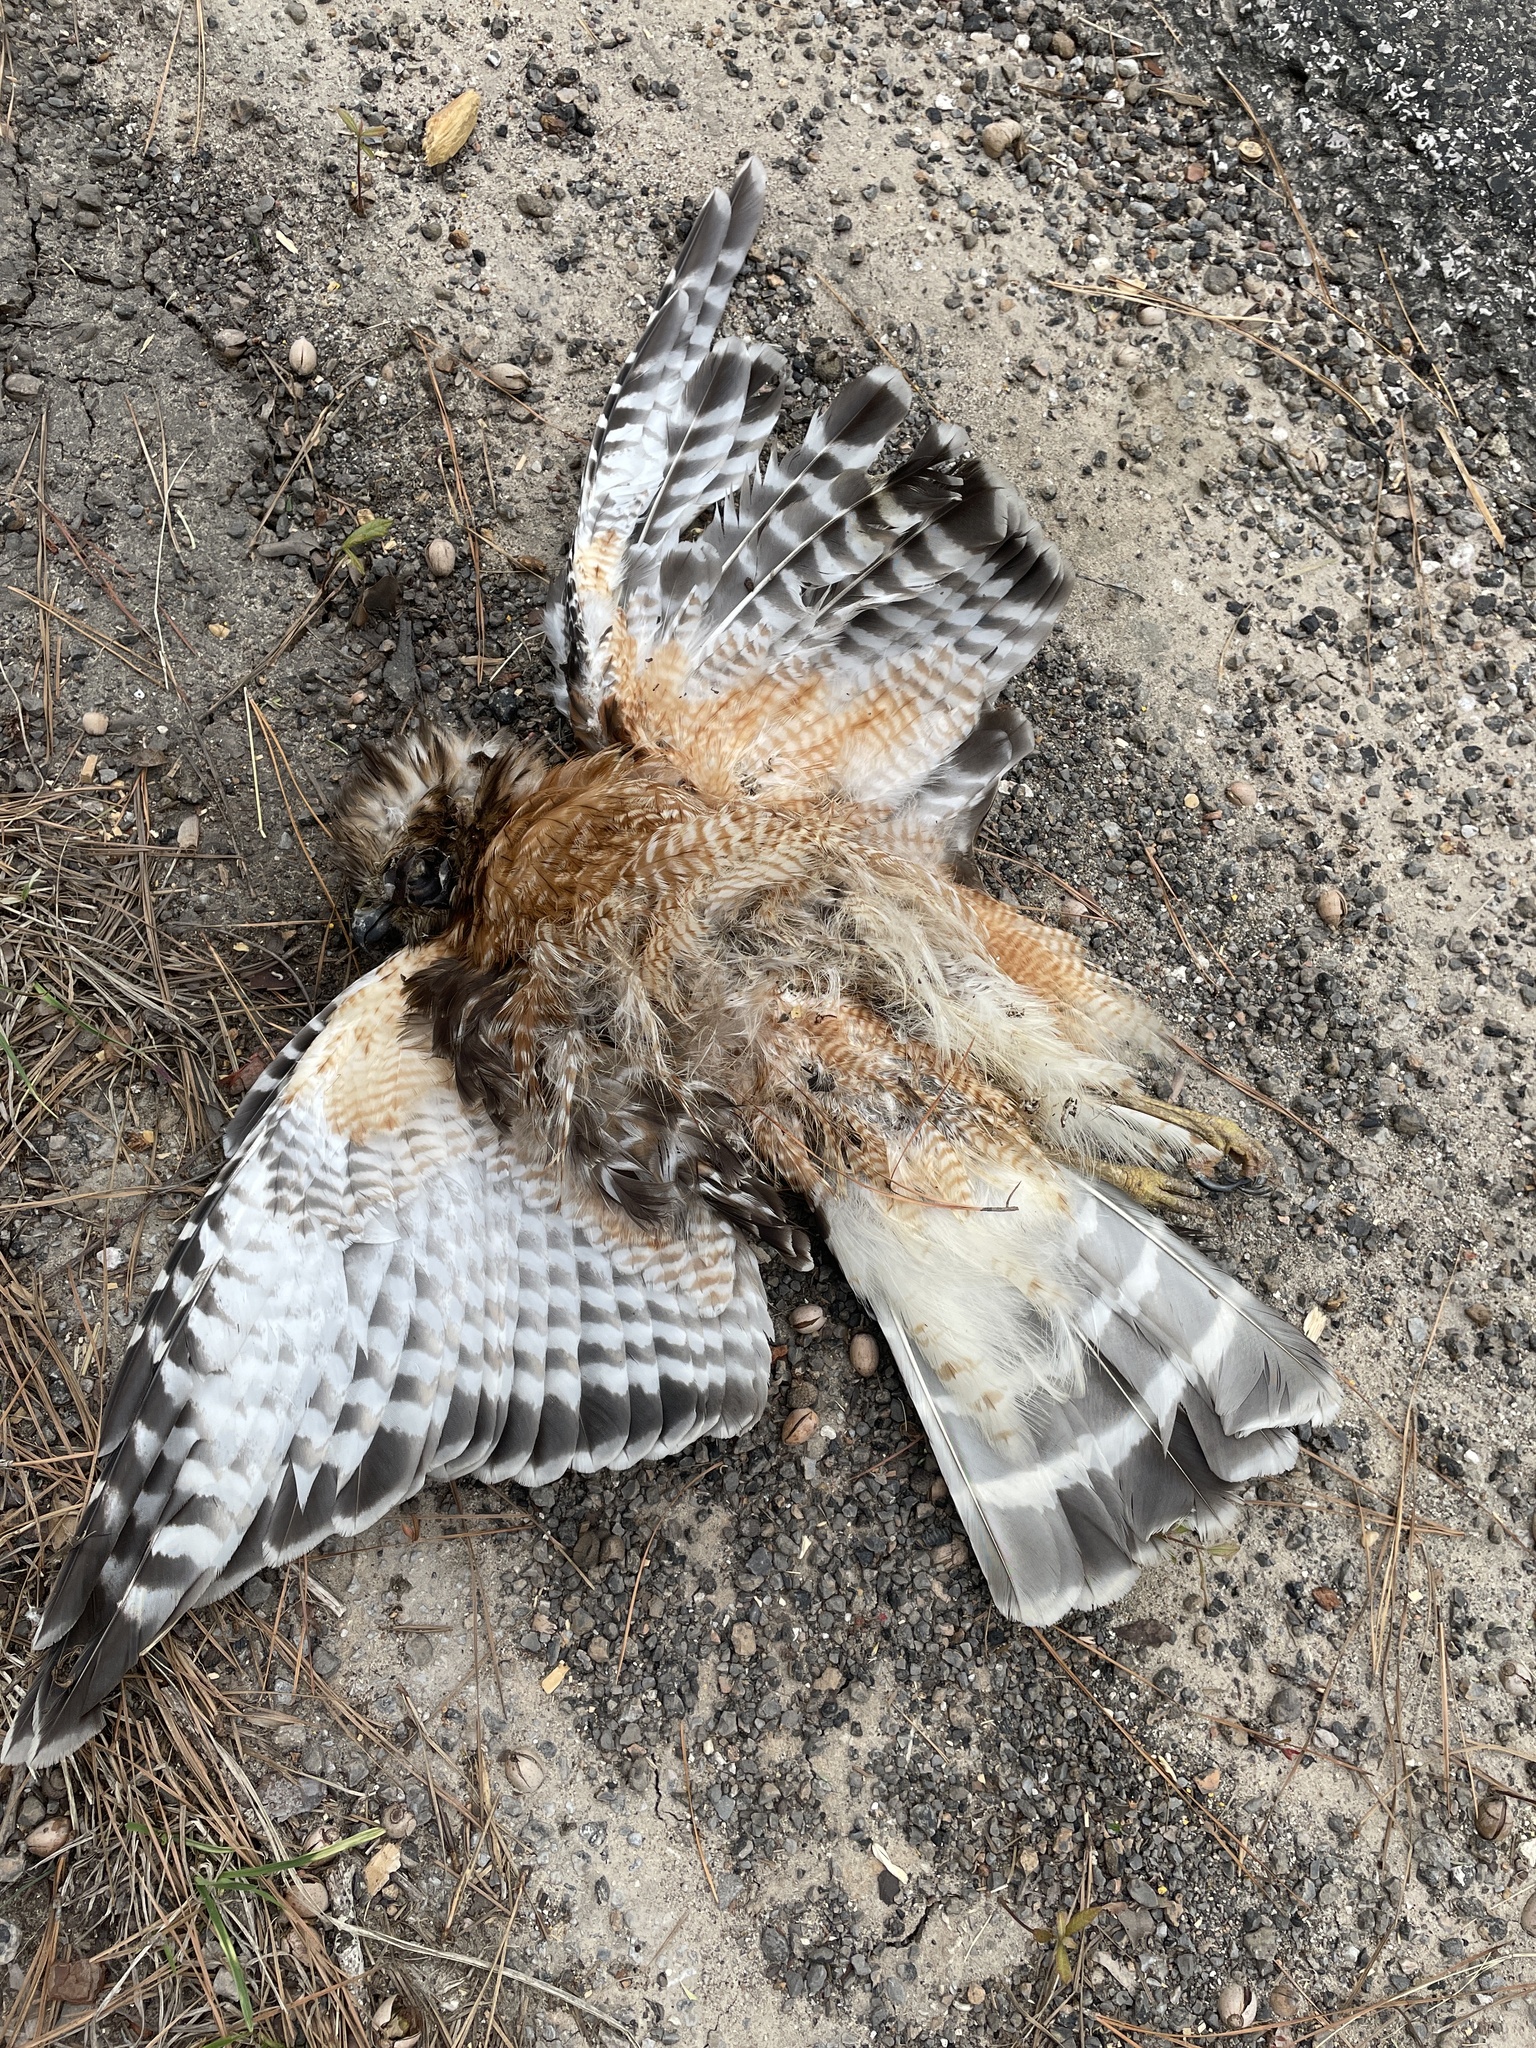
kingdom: Animalia
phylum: Chordata
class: Aves
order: Accipitriformes
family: Accipitridae
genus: Buteo
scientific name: Buteo lineatus
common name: Red-shouldered hawk
